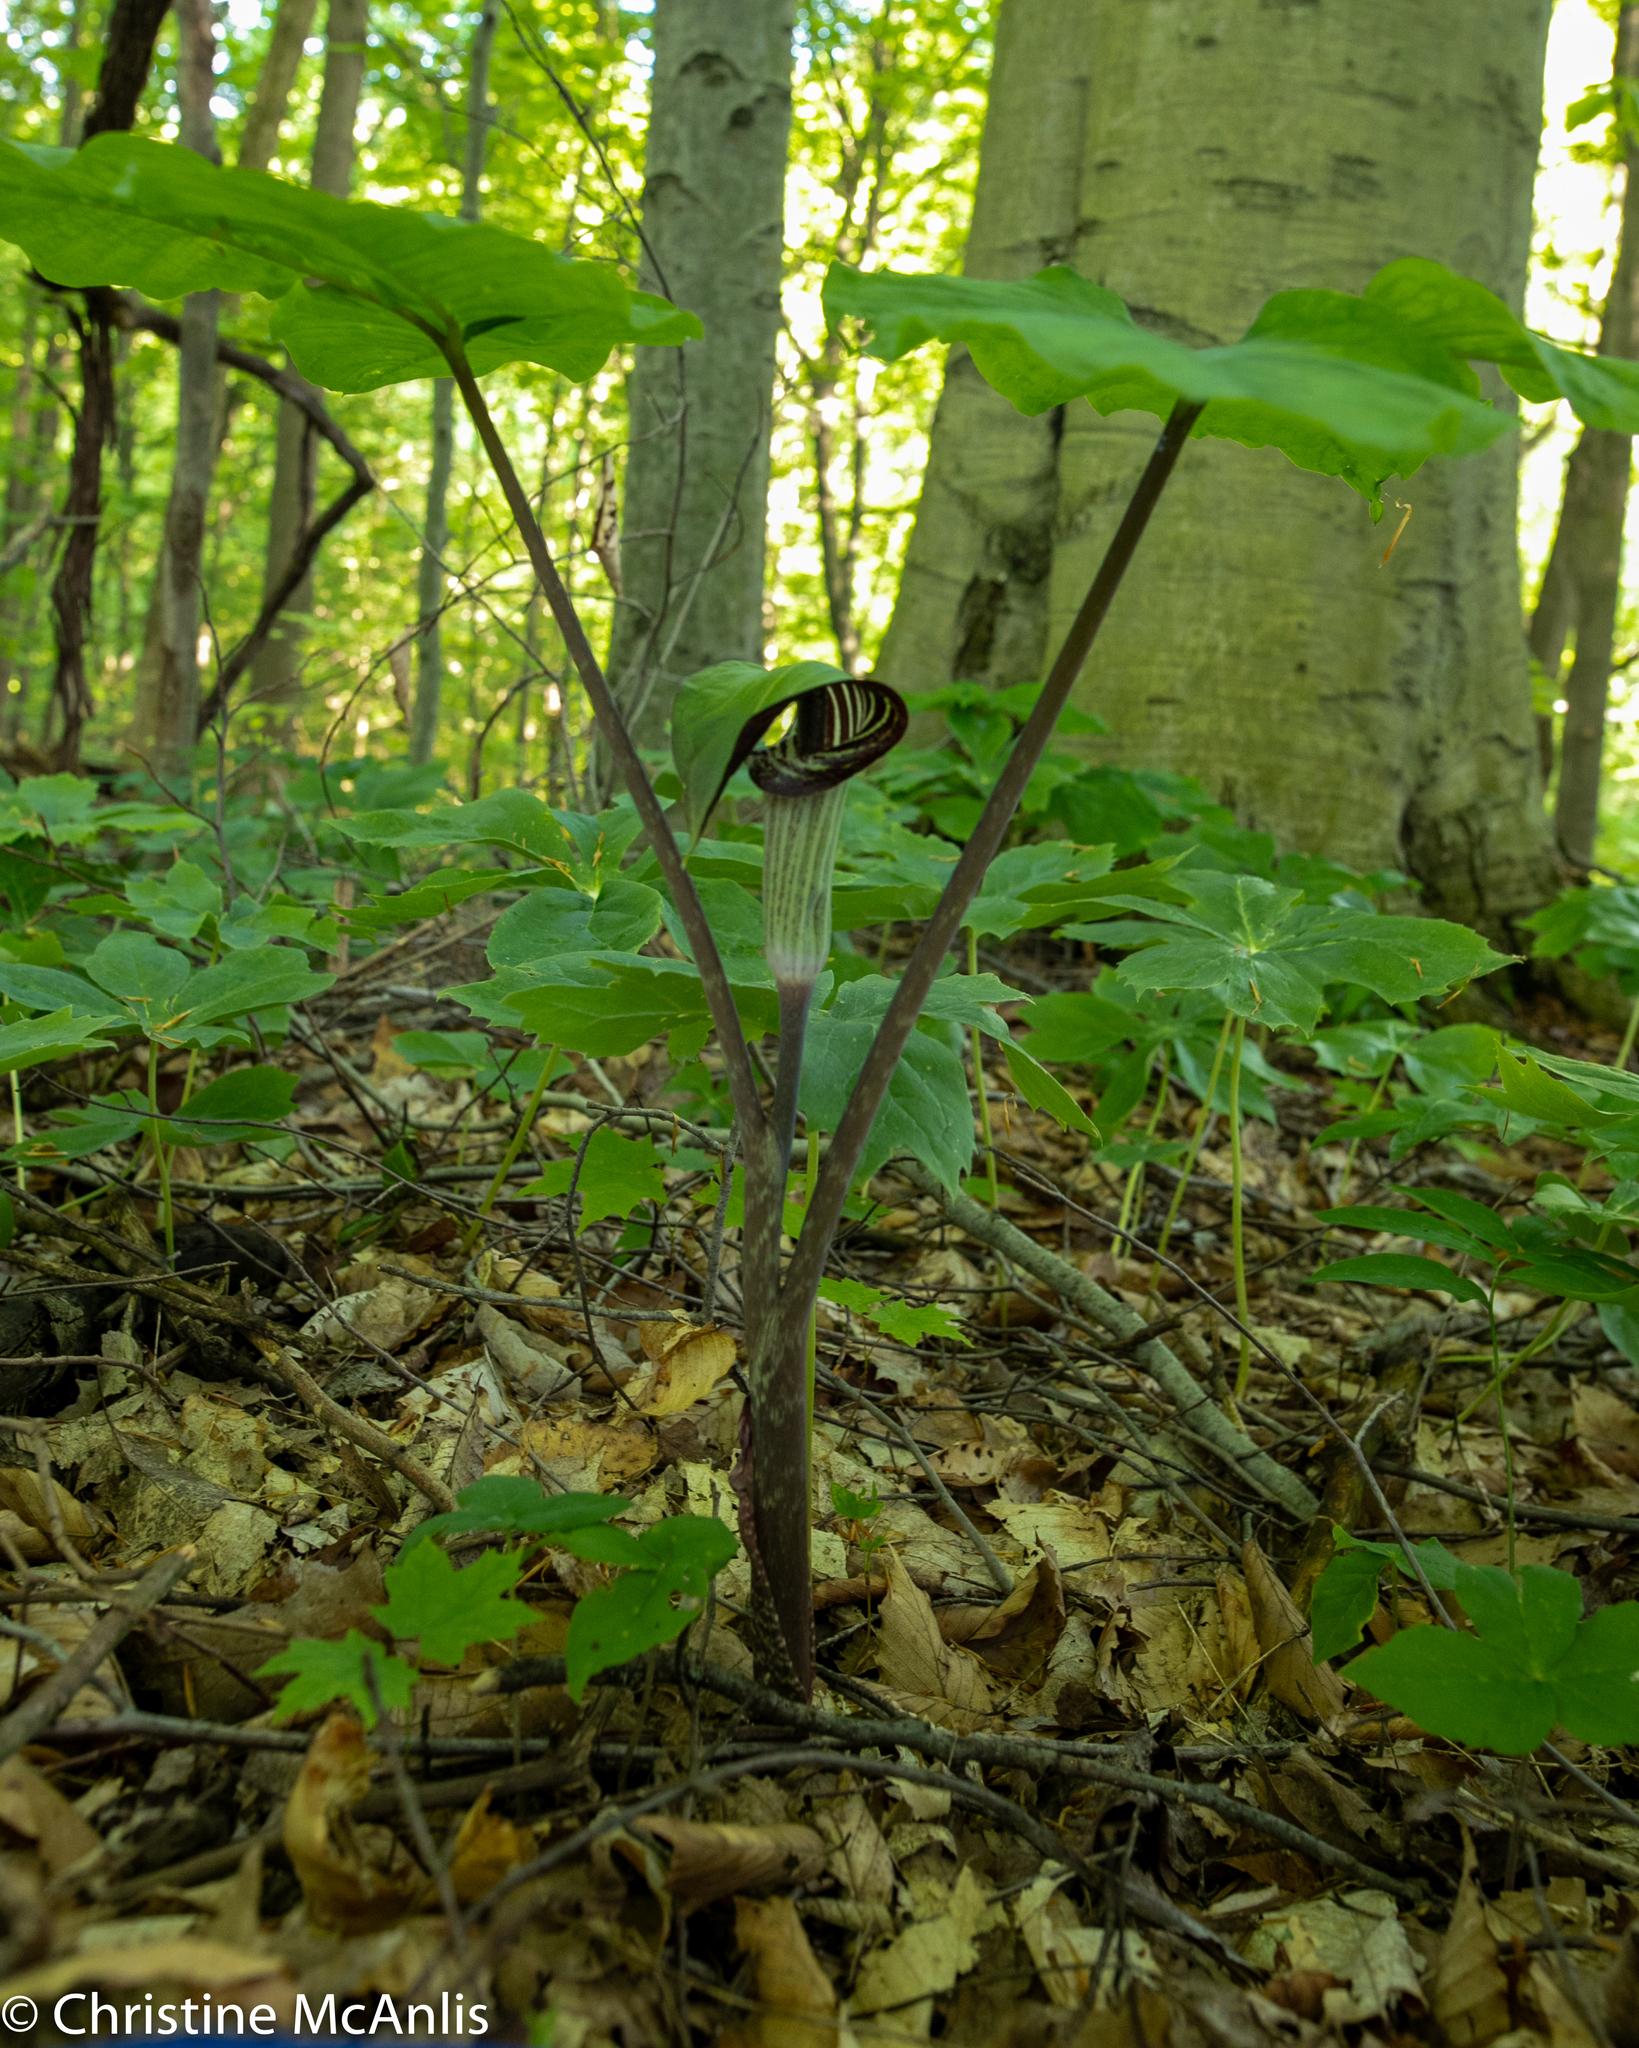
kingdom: Plantae
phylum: Tracheophyta
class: Liliopsida
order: Alismatales
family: Araceae
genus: Arisaema
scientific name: Arisaema triphyllum
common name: Jack-in-the-pulpit
